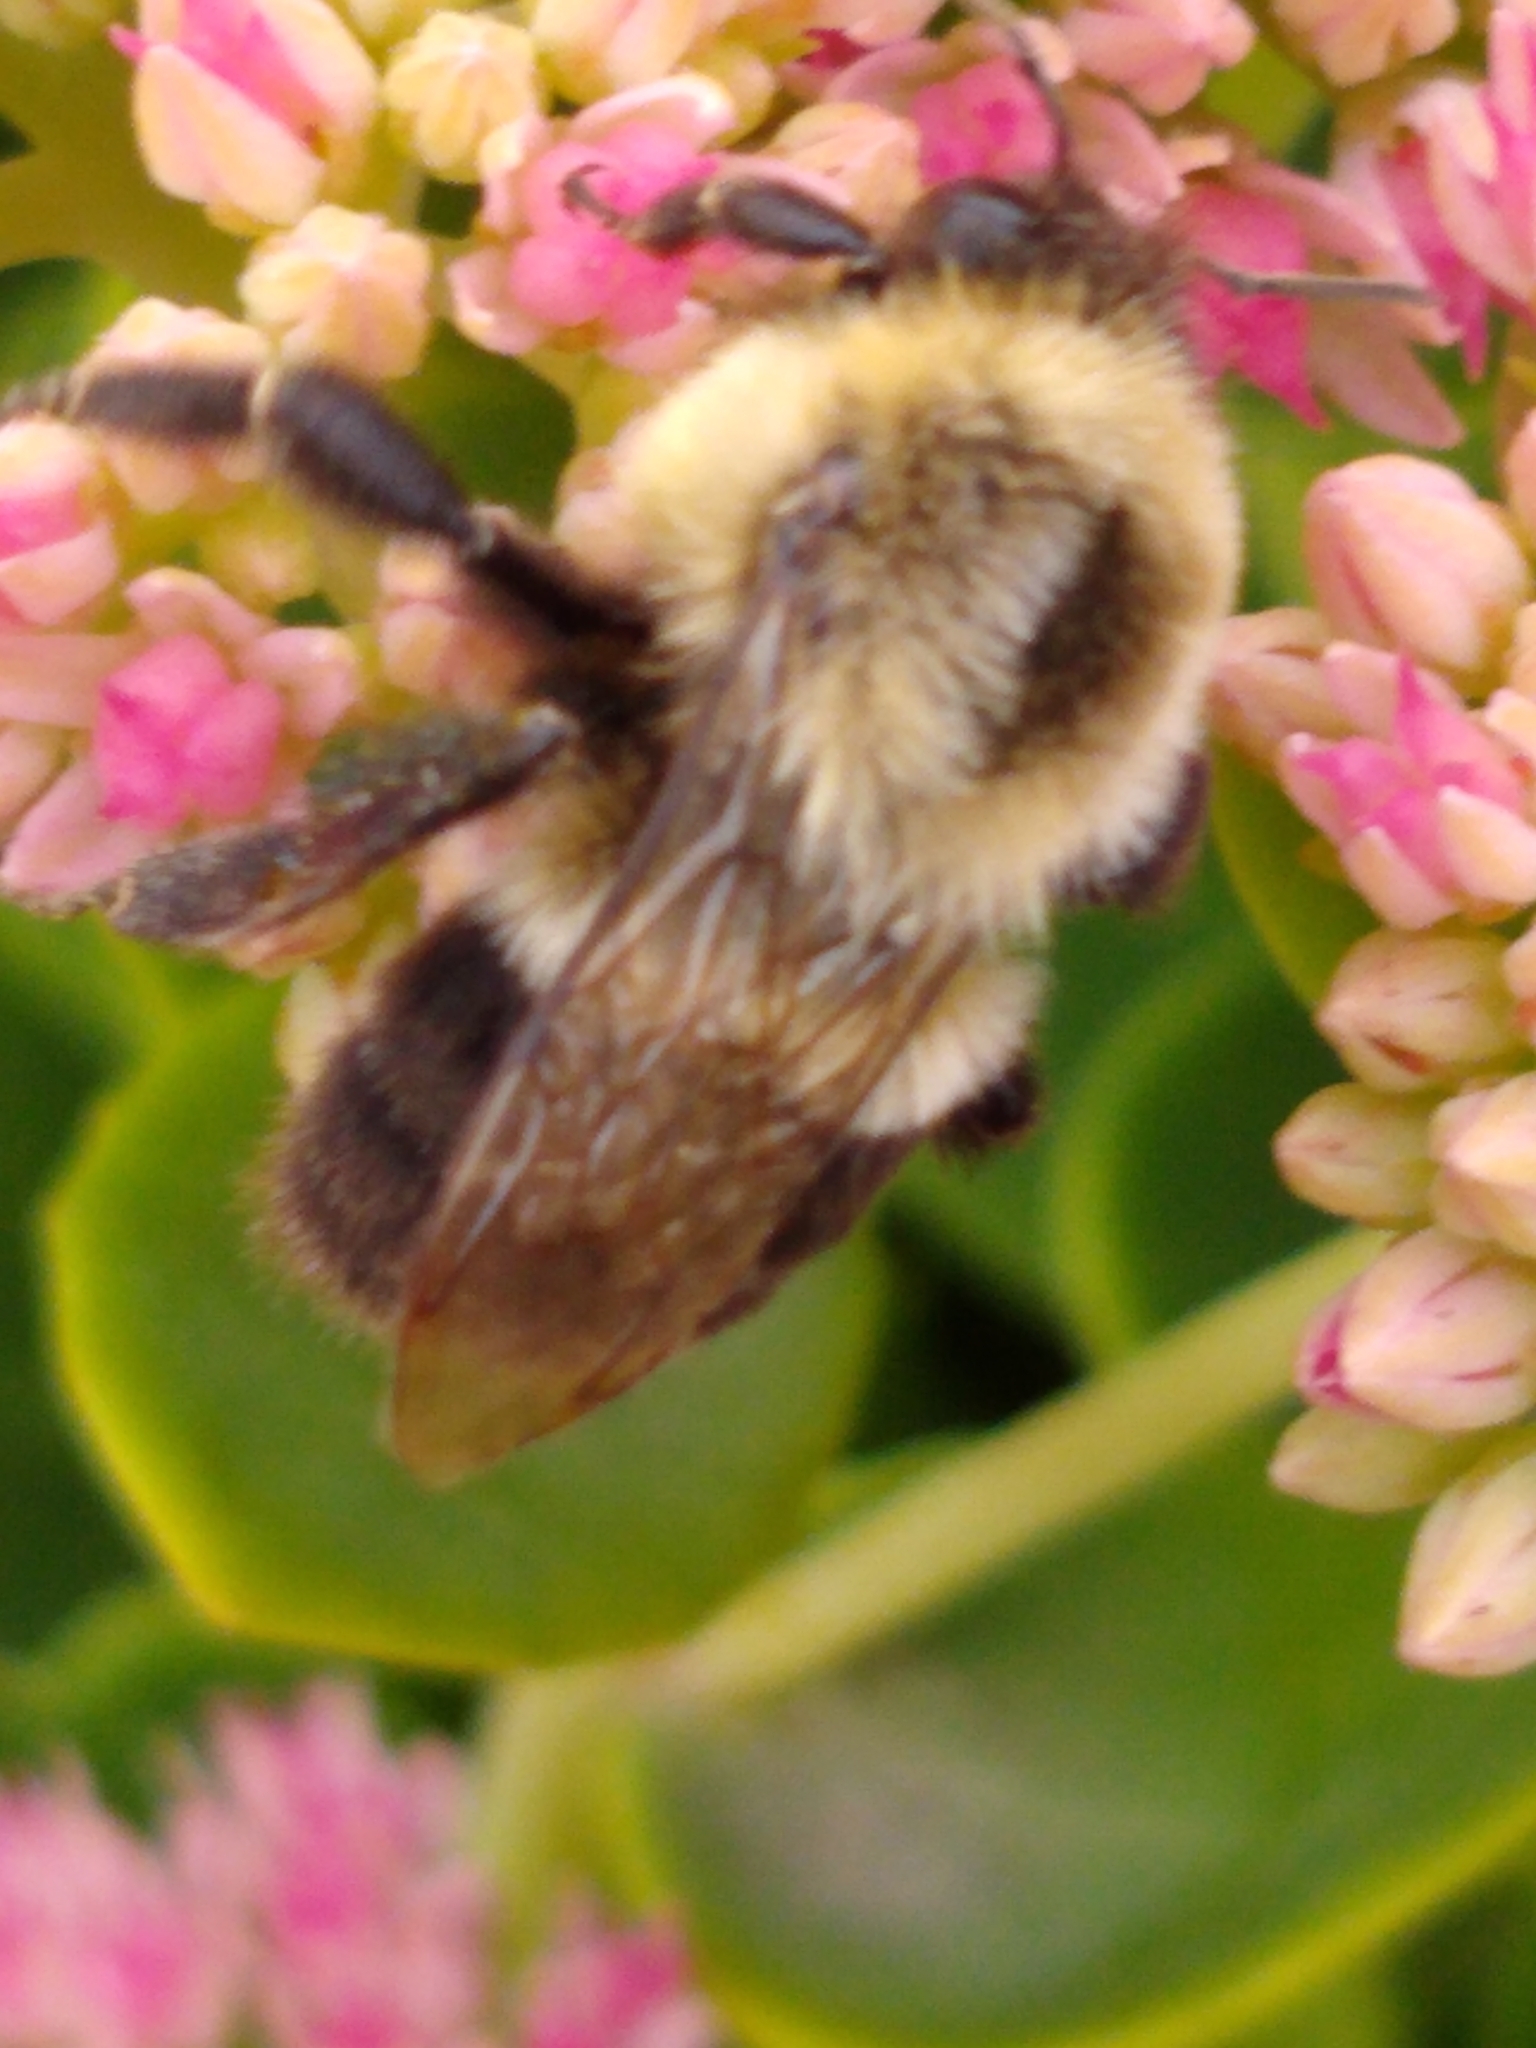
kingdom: Animalia
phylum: Arthropoda
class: Insecta
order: Hymenoptera
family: Apidae
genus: Bombus
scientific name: Bombus impatiens
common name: Common eastern bumble bee
